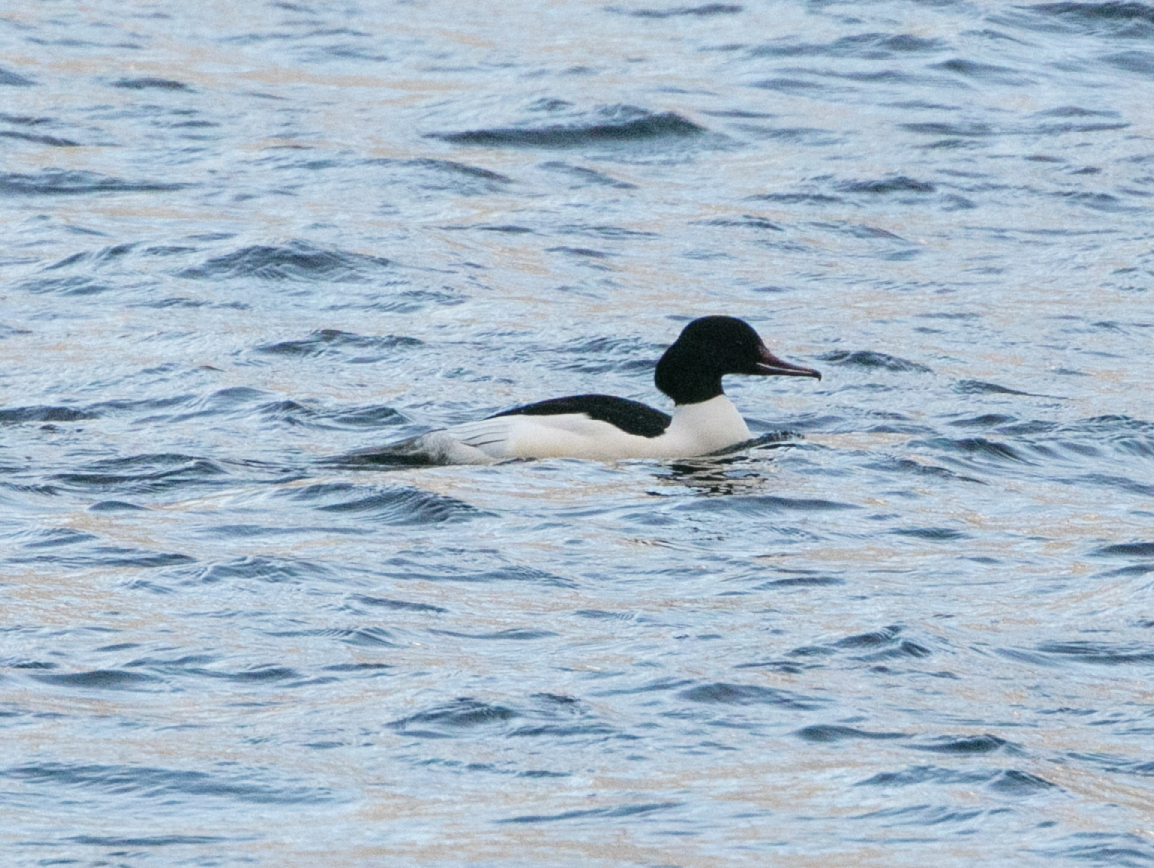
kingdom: Animalia
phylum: Chordata
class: Aves
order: Anseriformes
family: Anatidae
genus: Mergus
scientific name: Mergus merganser
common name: Common merganser
